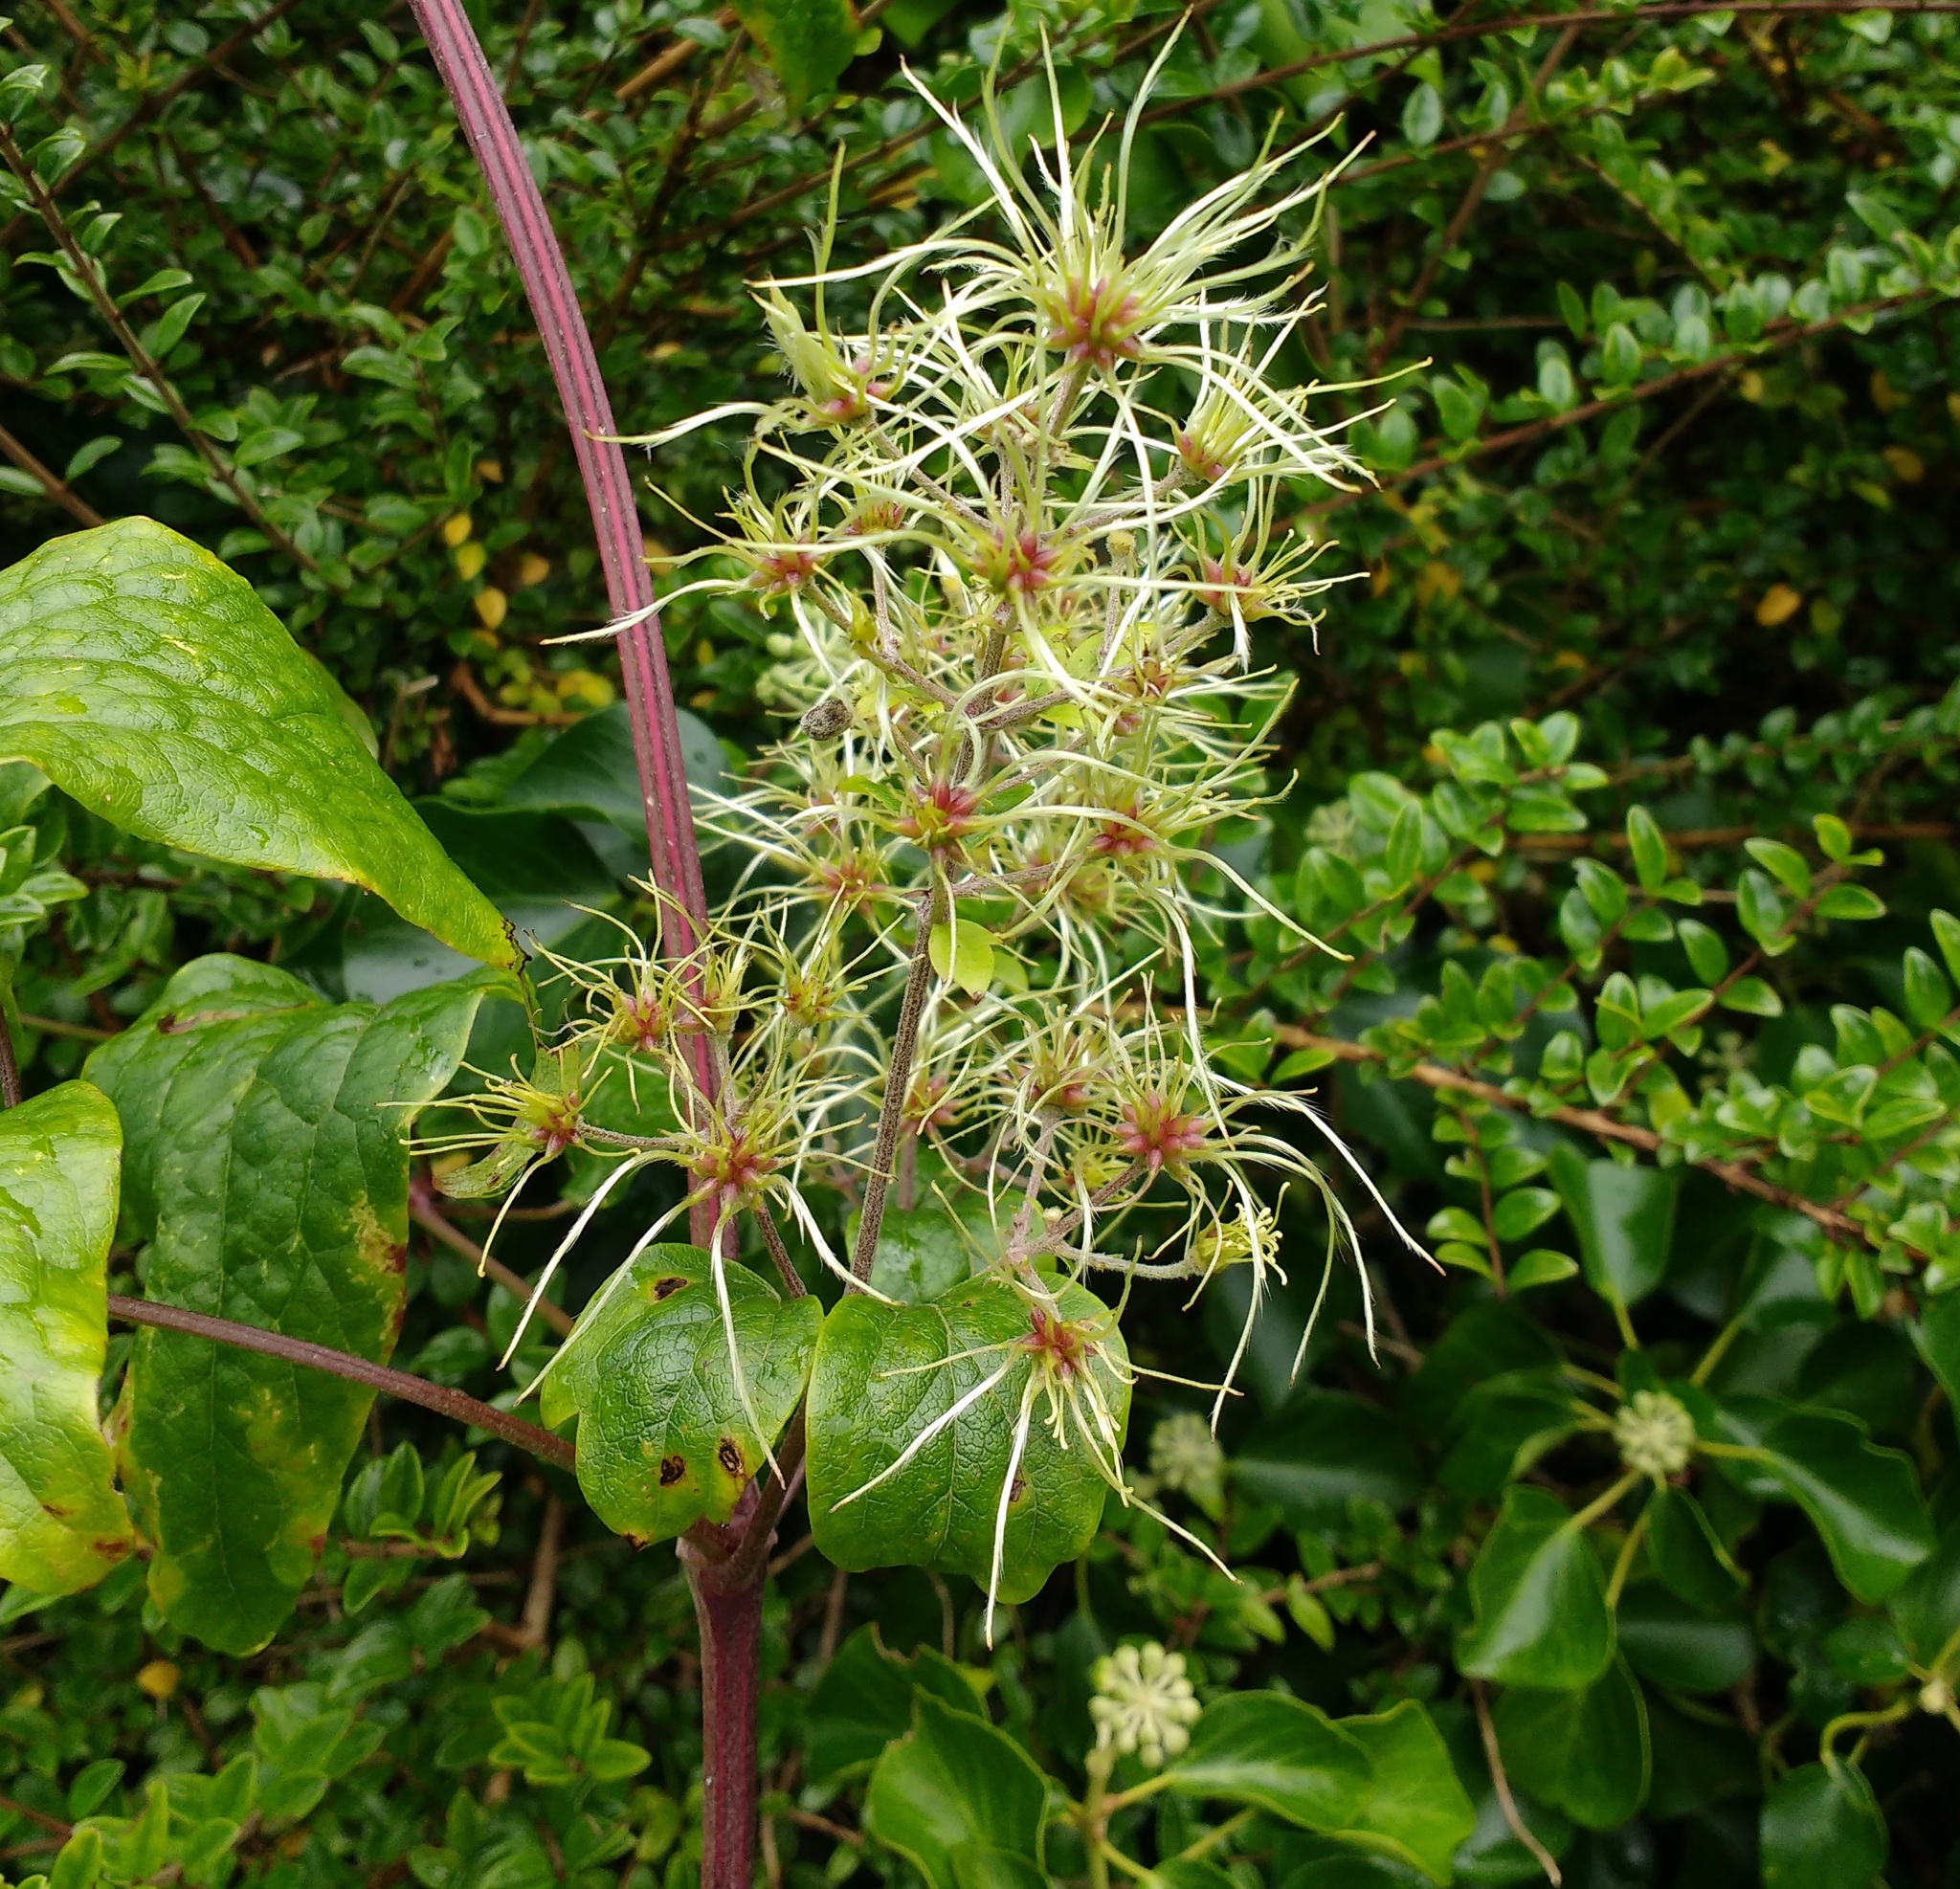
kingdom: Plantae
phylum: Tracheophyta
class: Magnoliopsida
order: Ranunculales
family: Ranunculaceae
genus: Clematis
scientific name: Clematis vitalba
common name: Evergreen clematis
